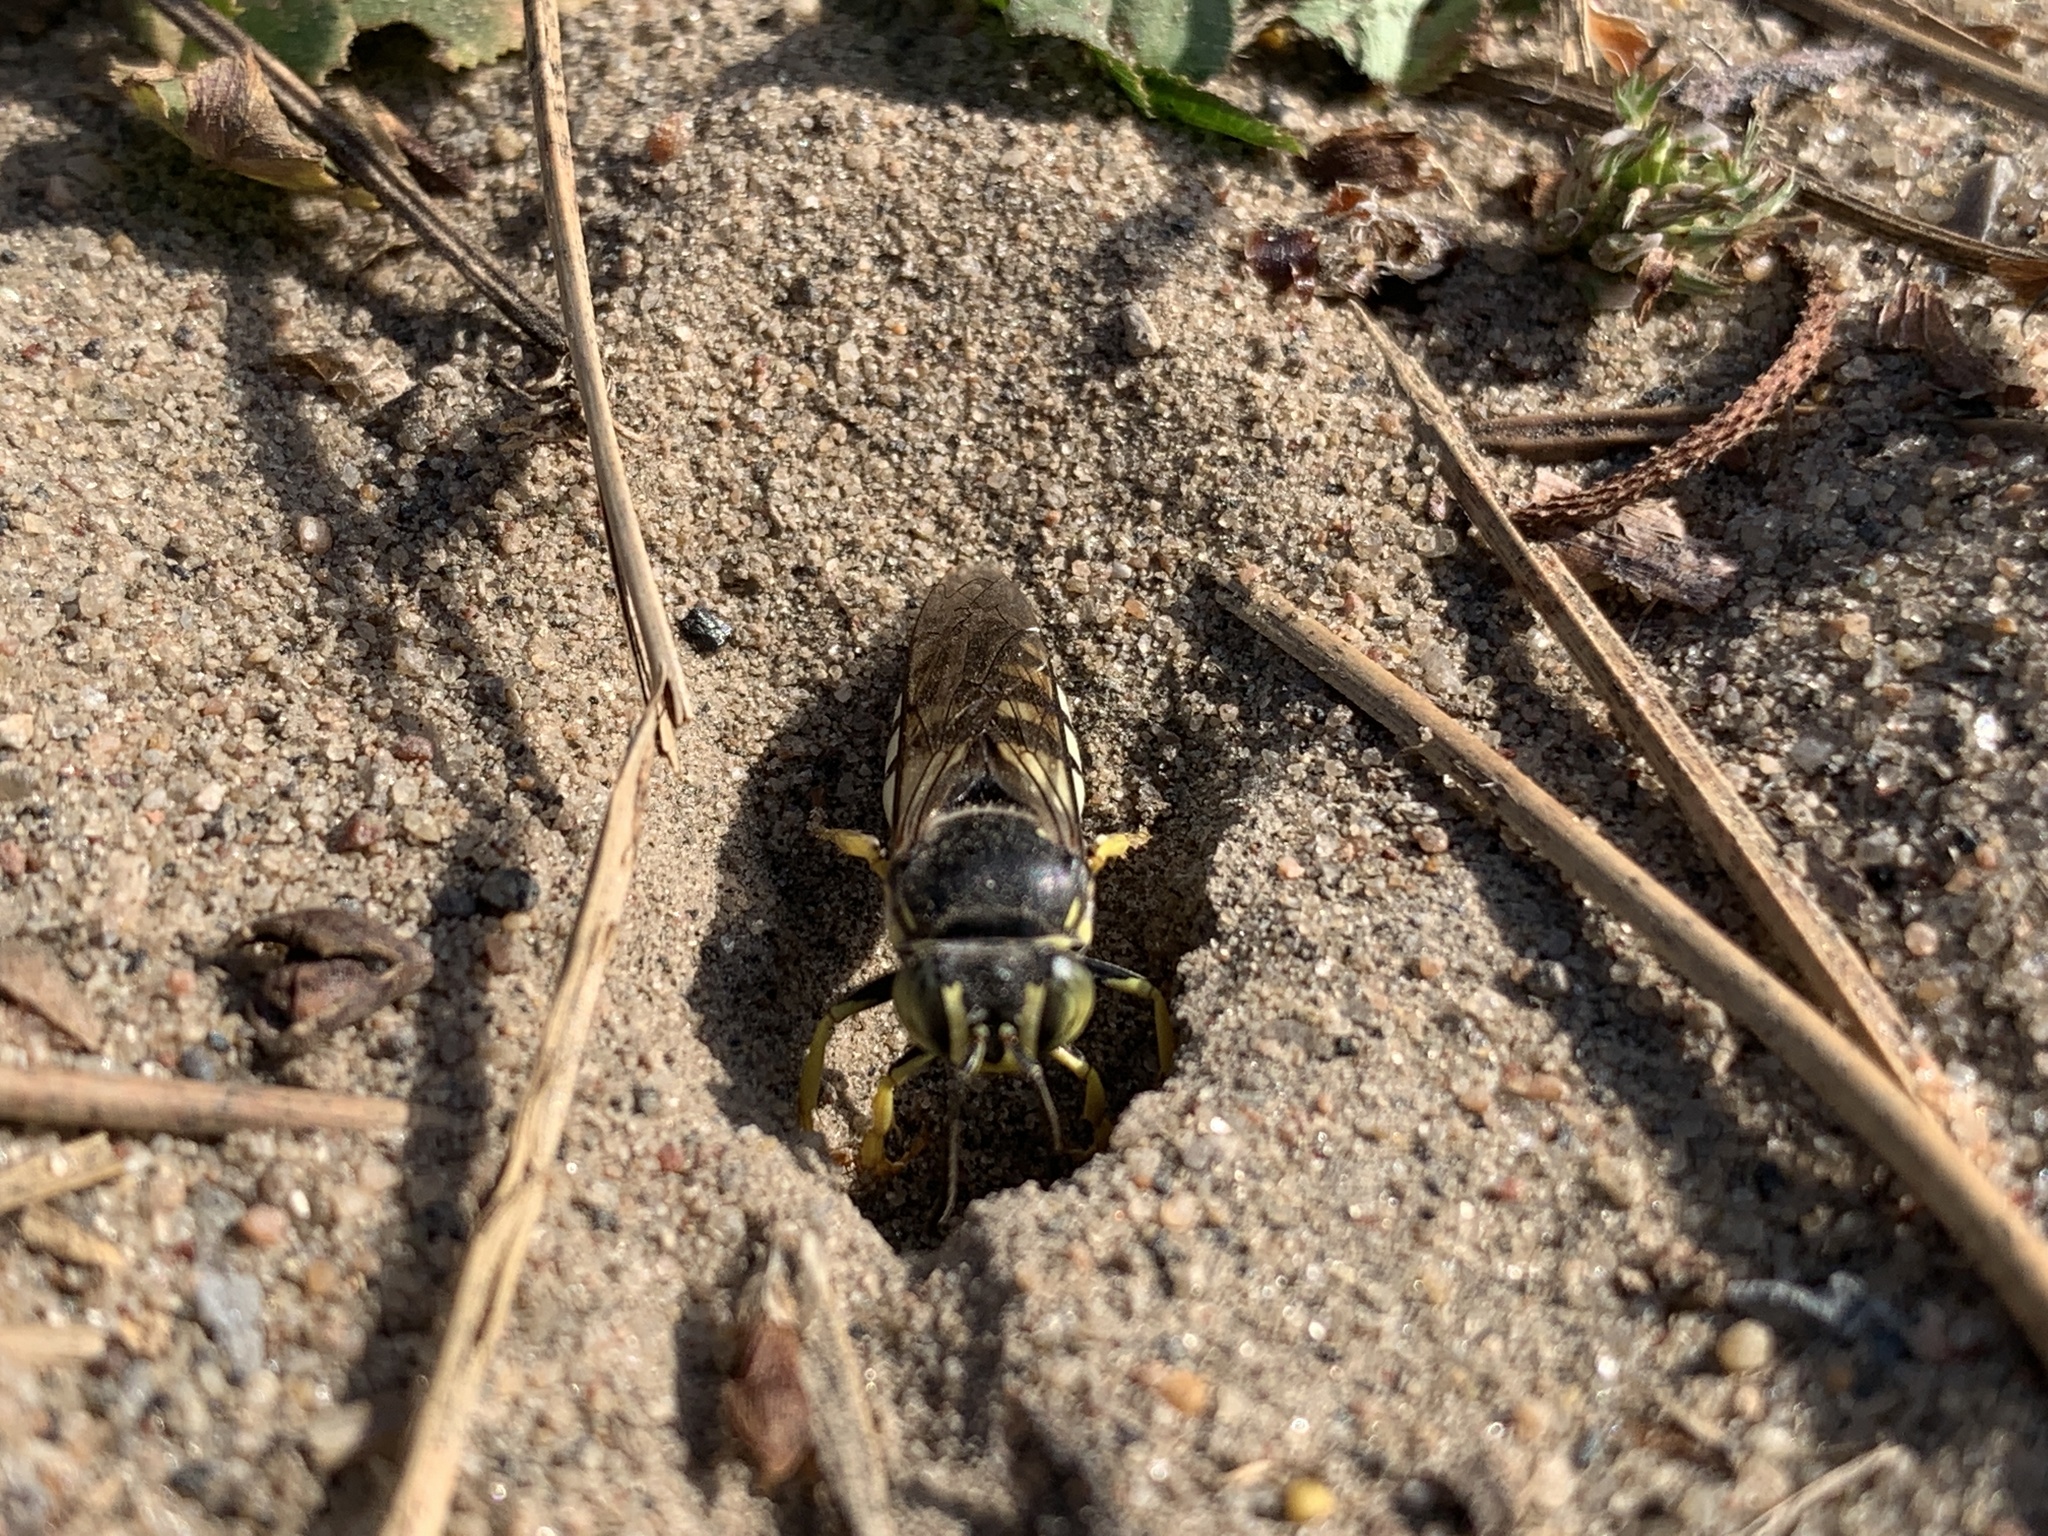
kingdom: Animalia
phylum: Arthropoda
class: Insecta
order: Hymenoptera
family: Crabronidae
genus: Bicyrtes
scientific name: Bicyrtes quadrifasciatus
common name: Four-banded stink bug hunter wasp
